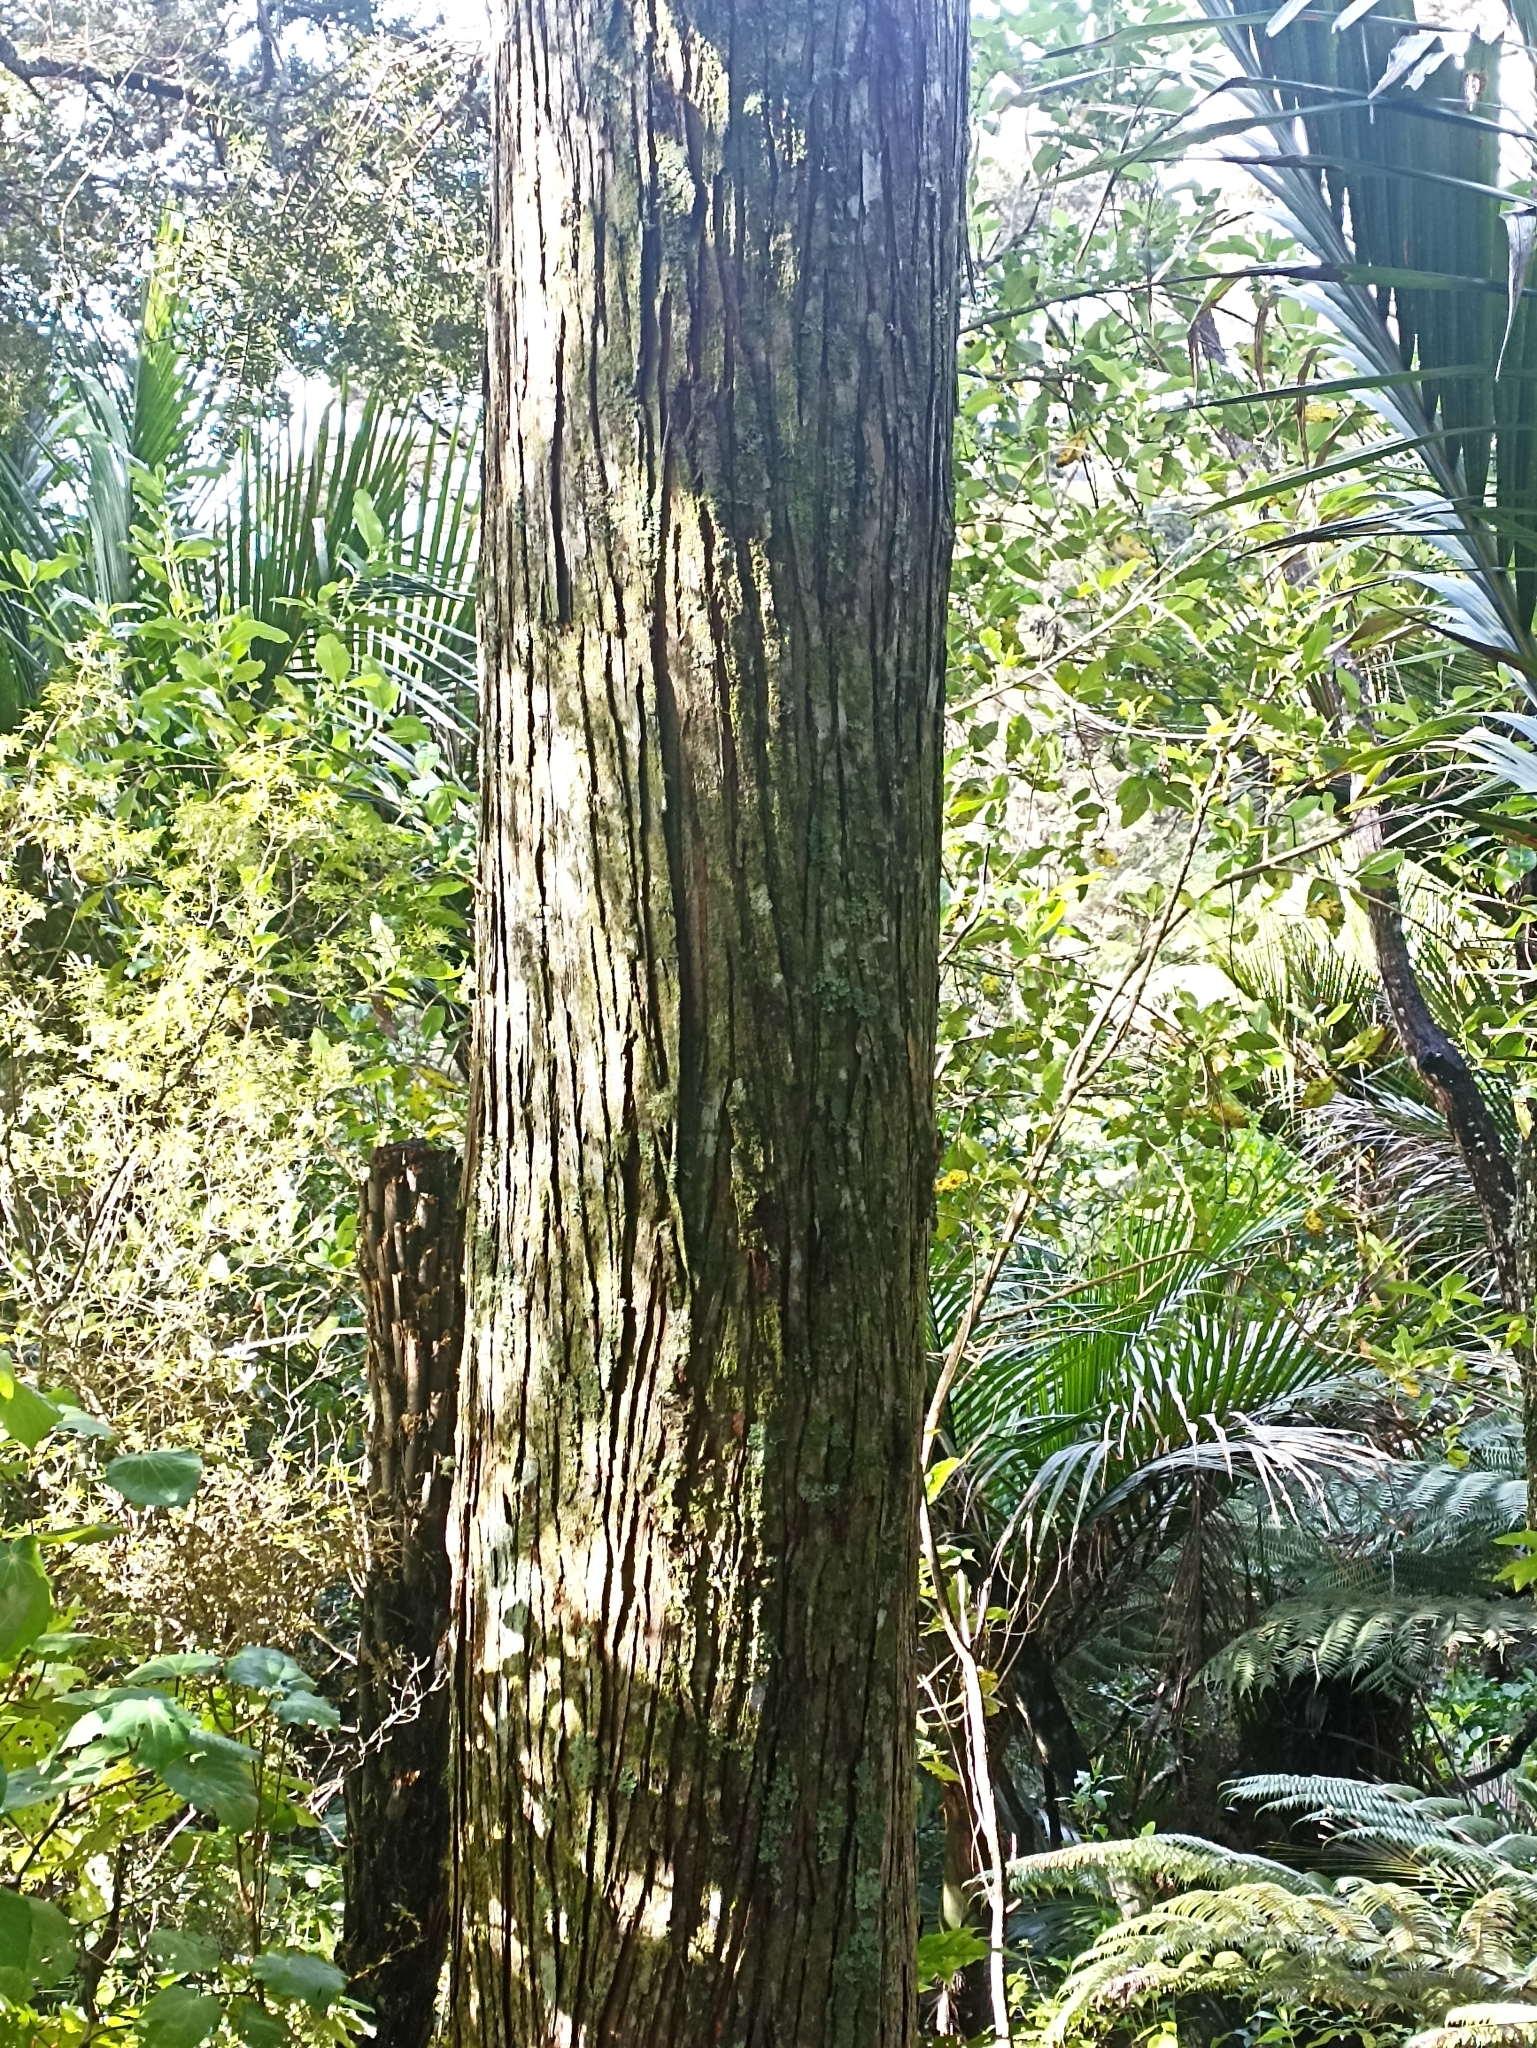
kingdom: Plantae
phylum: Tracheophyta
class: Pinopsida
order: Pinales
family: Podocarpaceae
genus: Podocarpus
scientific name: Podocarpus totara
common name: Totara
